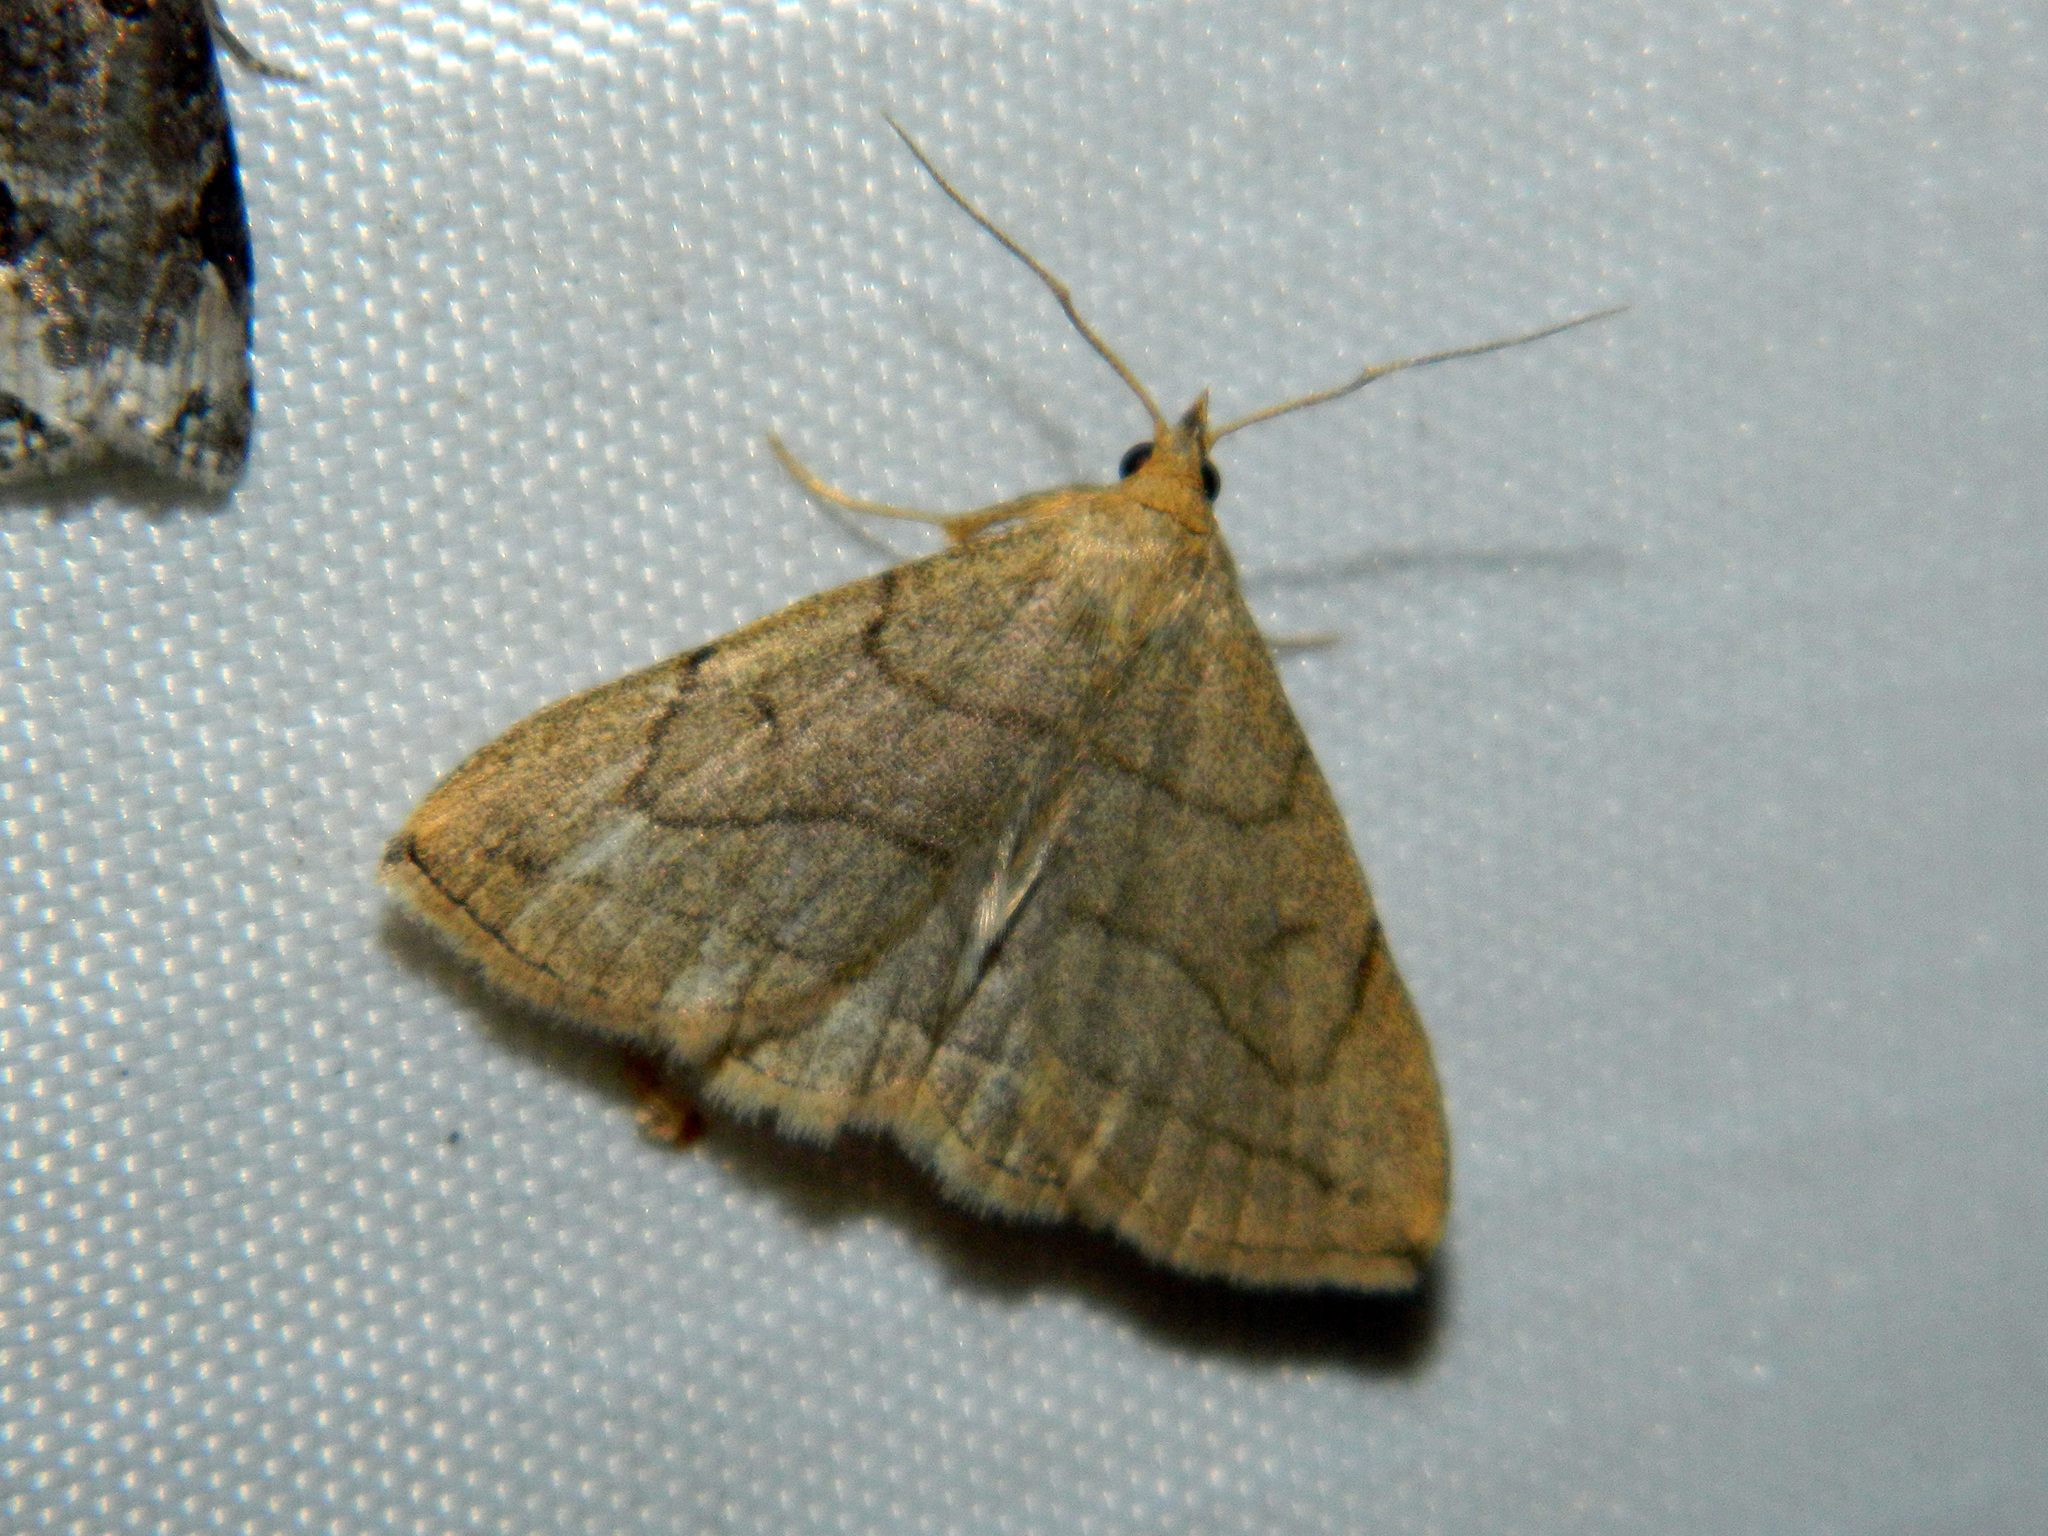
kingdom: Animalia
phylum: Arthropoda
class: Insecta
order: Lepidoptera
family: Erebidae
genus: Zanclognatha
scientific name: Zanclognatha pedipilalis
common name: Grayish fan-foot
